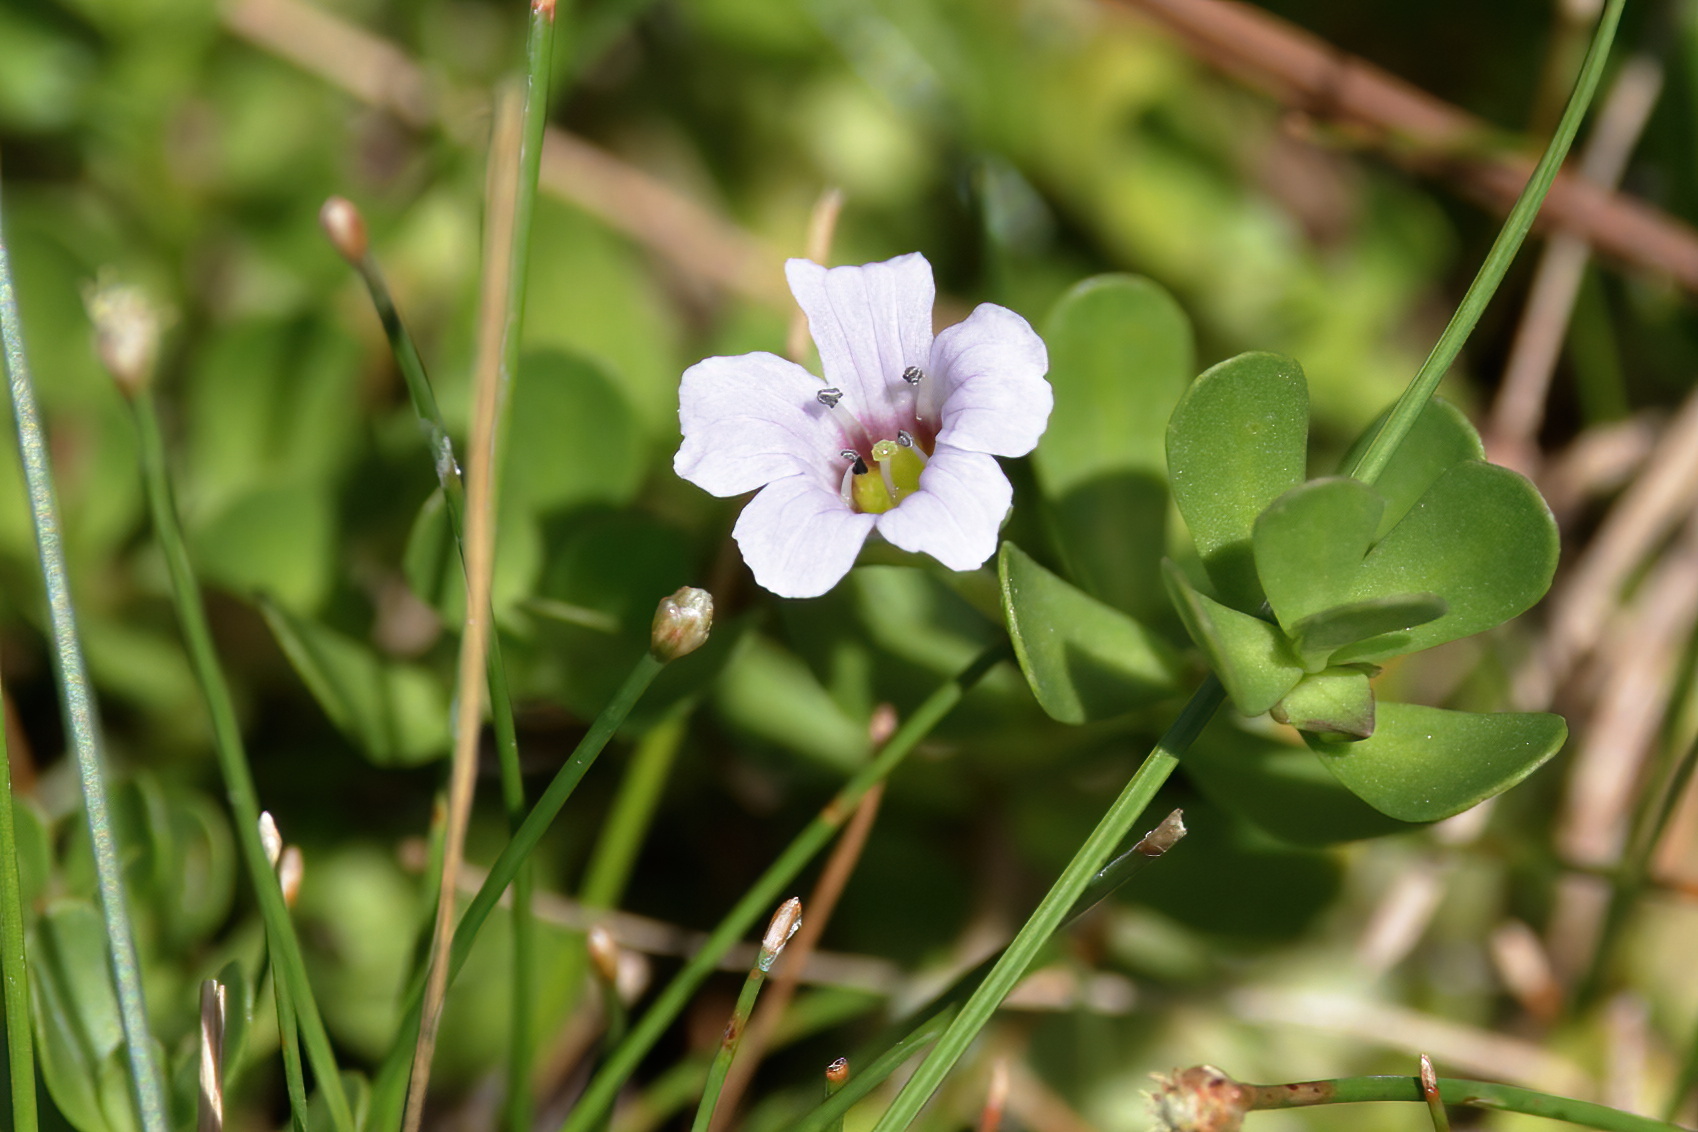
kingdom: Plantae
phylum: Tracheophyta
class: Magnoliopsida
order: Lamiales
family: Plantaginaceae
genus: Bacopa
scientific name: Bacopa monnieri
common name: Indian-pennywort
